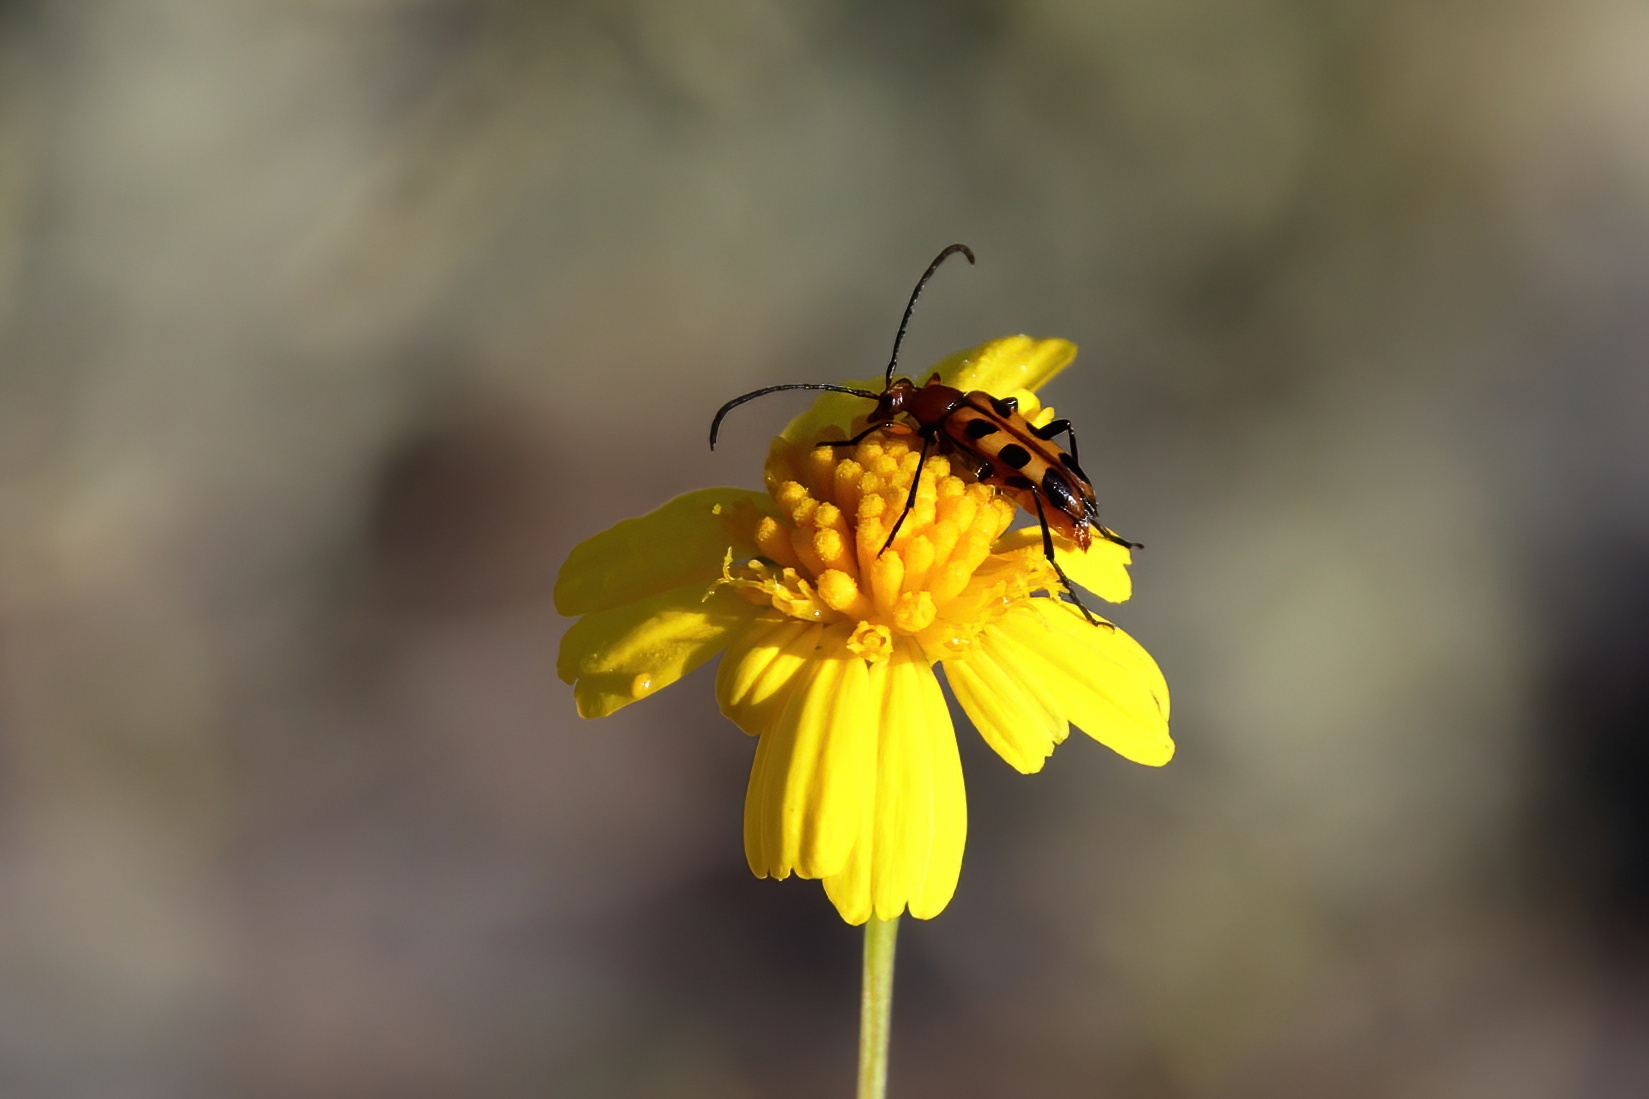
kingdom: Animalia
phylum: Arthropoda
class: Insecta
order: Coleoptera
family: Cerambycidae
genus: Strangalia
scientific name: Strangalia sexnotata
